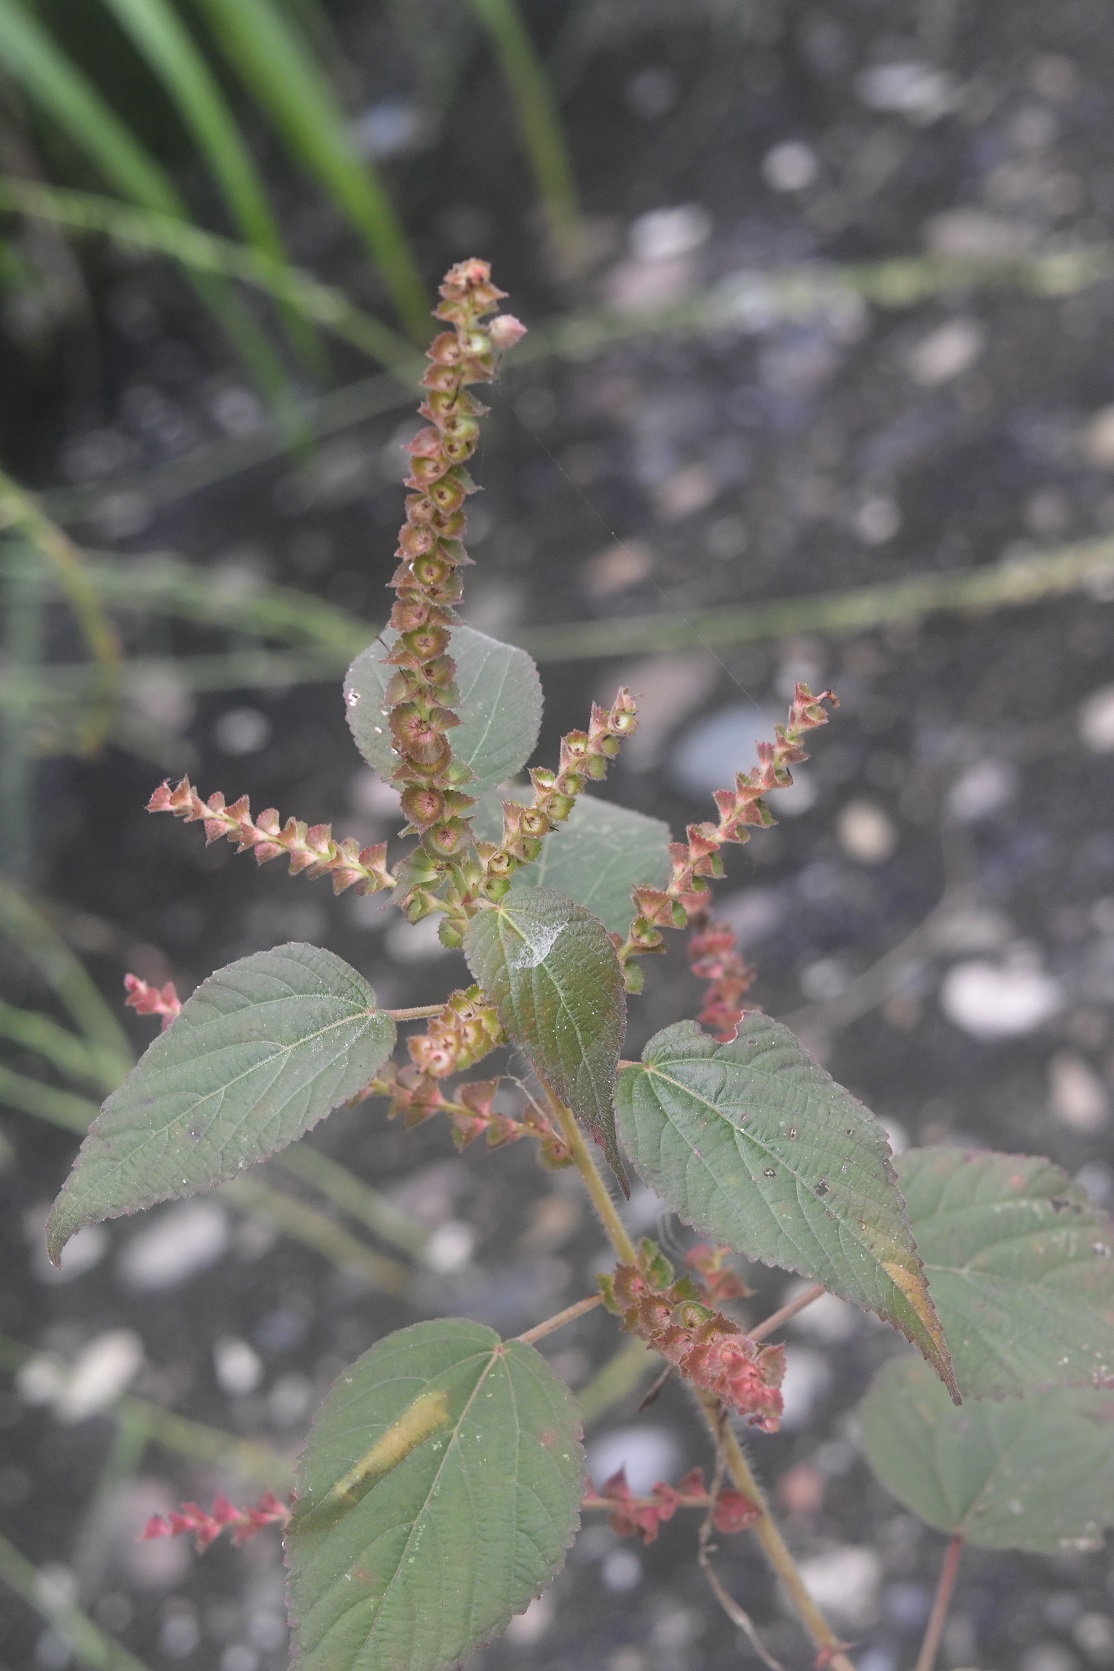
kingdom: Plantae
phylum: Tracheophyta
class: Magnoliopsida
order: Malpighiales
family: Euphorbiaceae
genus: Acalypha
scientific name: Acalypha adenostachya
